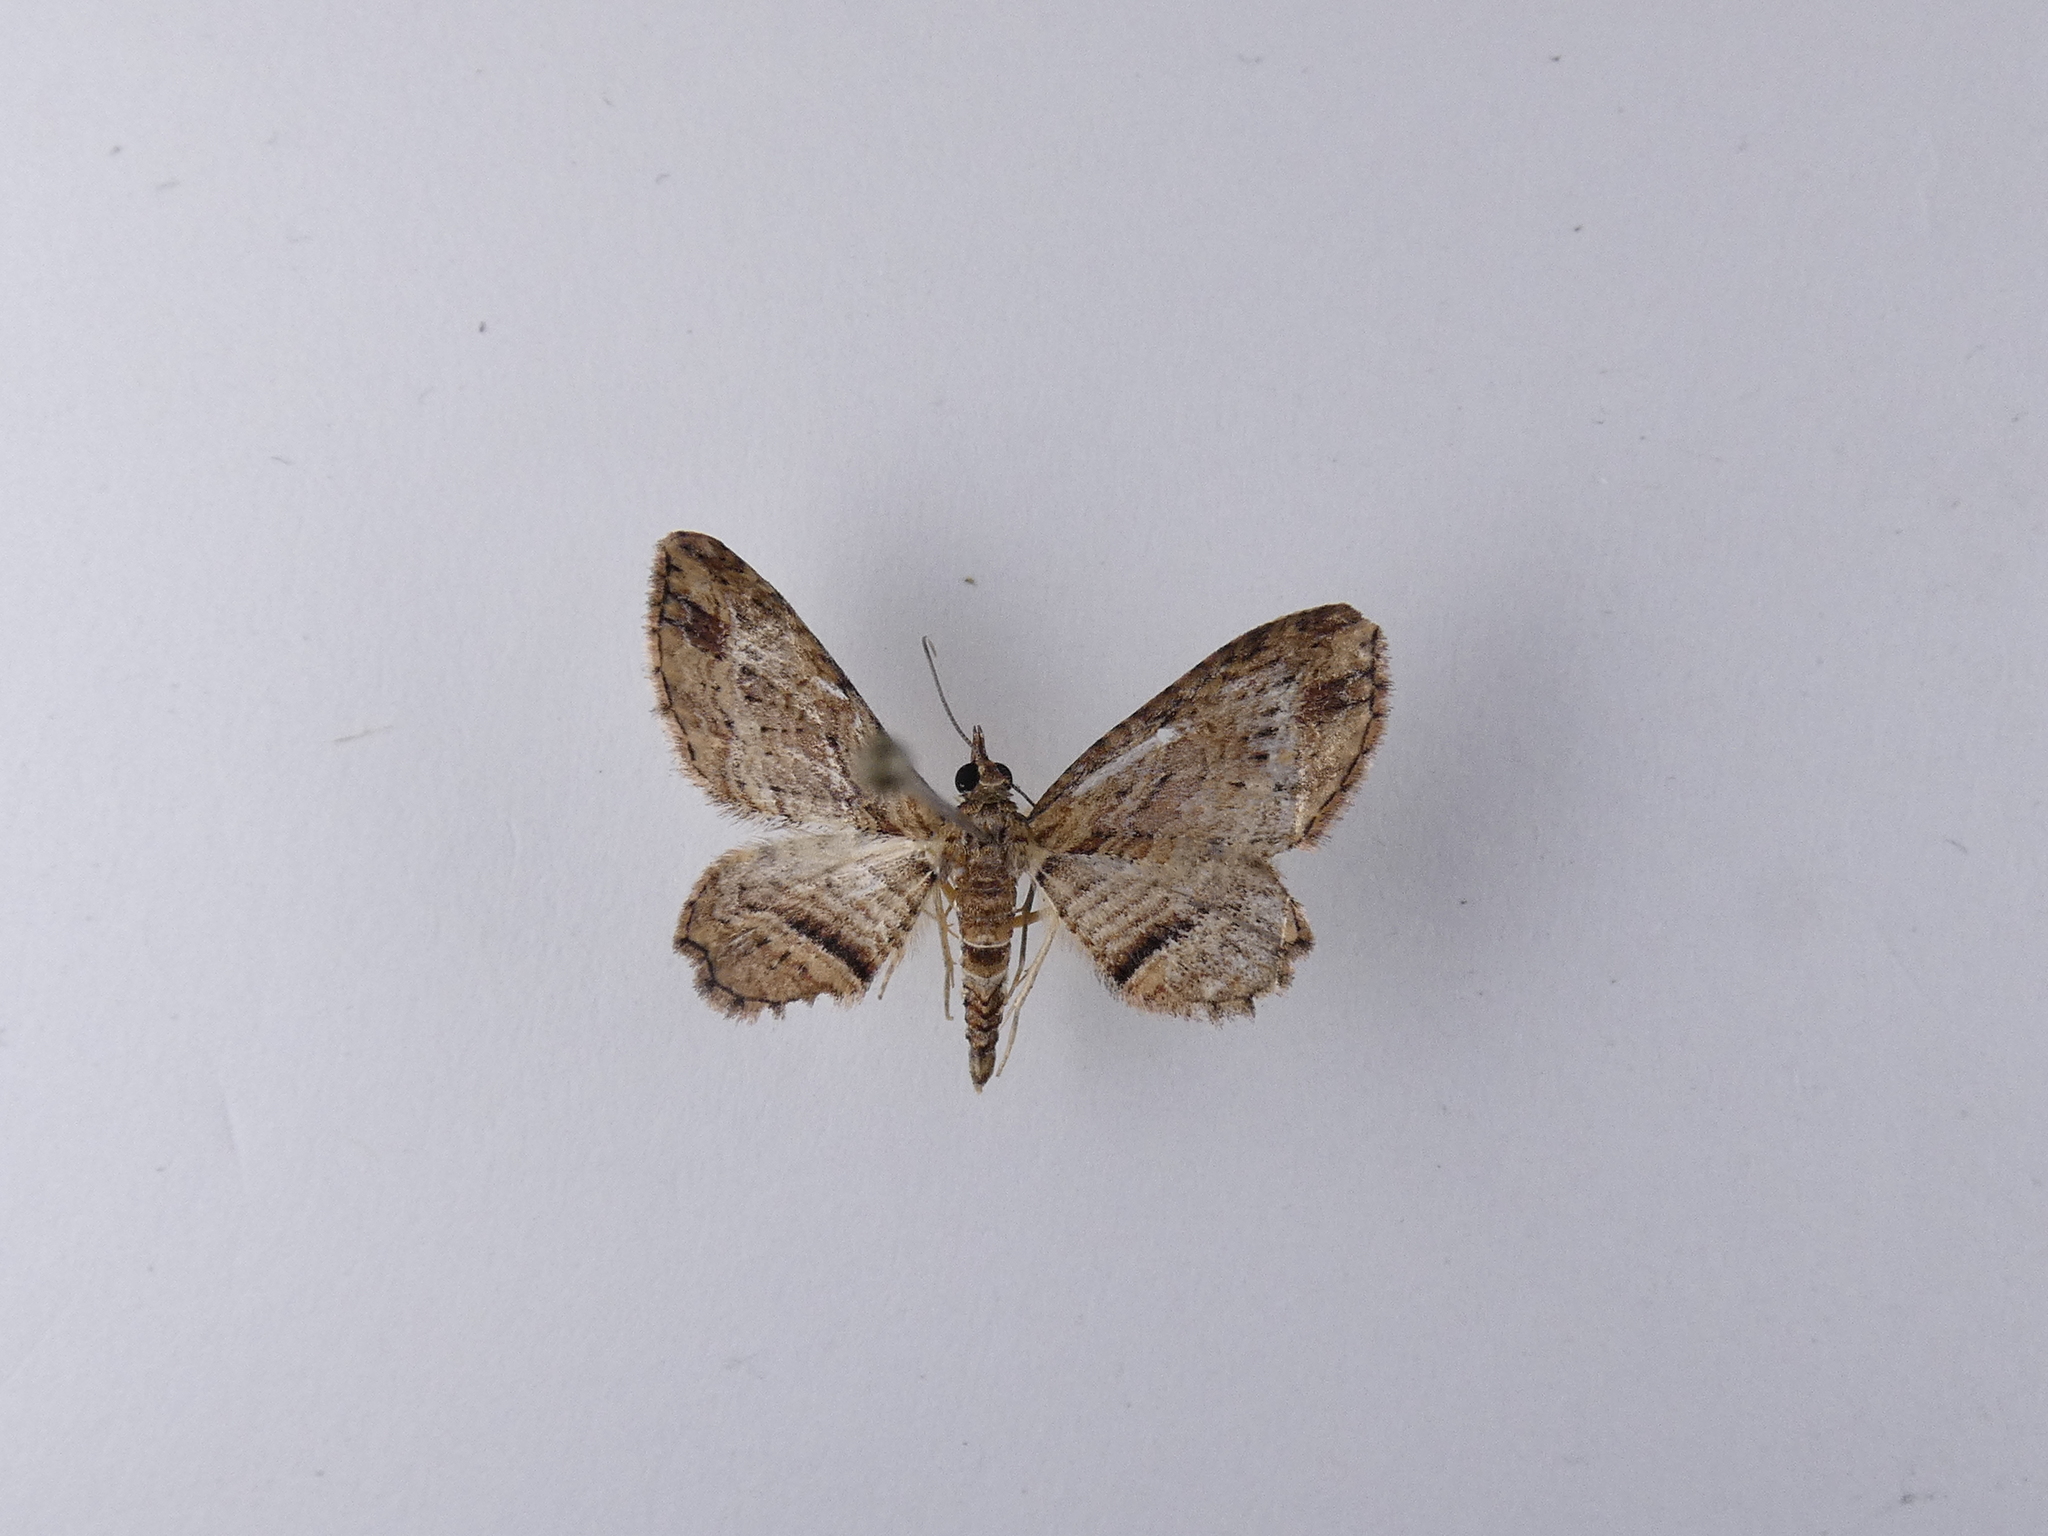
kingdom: Animalia
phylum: Arthropoda
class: Insecta
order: Lepidoptera
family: Geometridae
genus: Chloroclystis
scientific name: Chloroclystis filata
